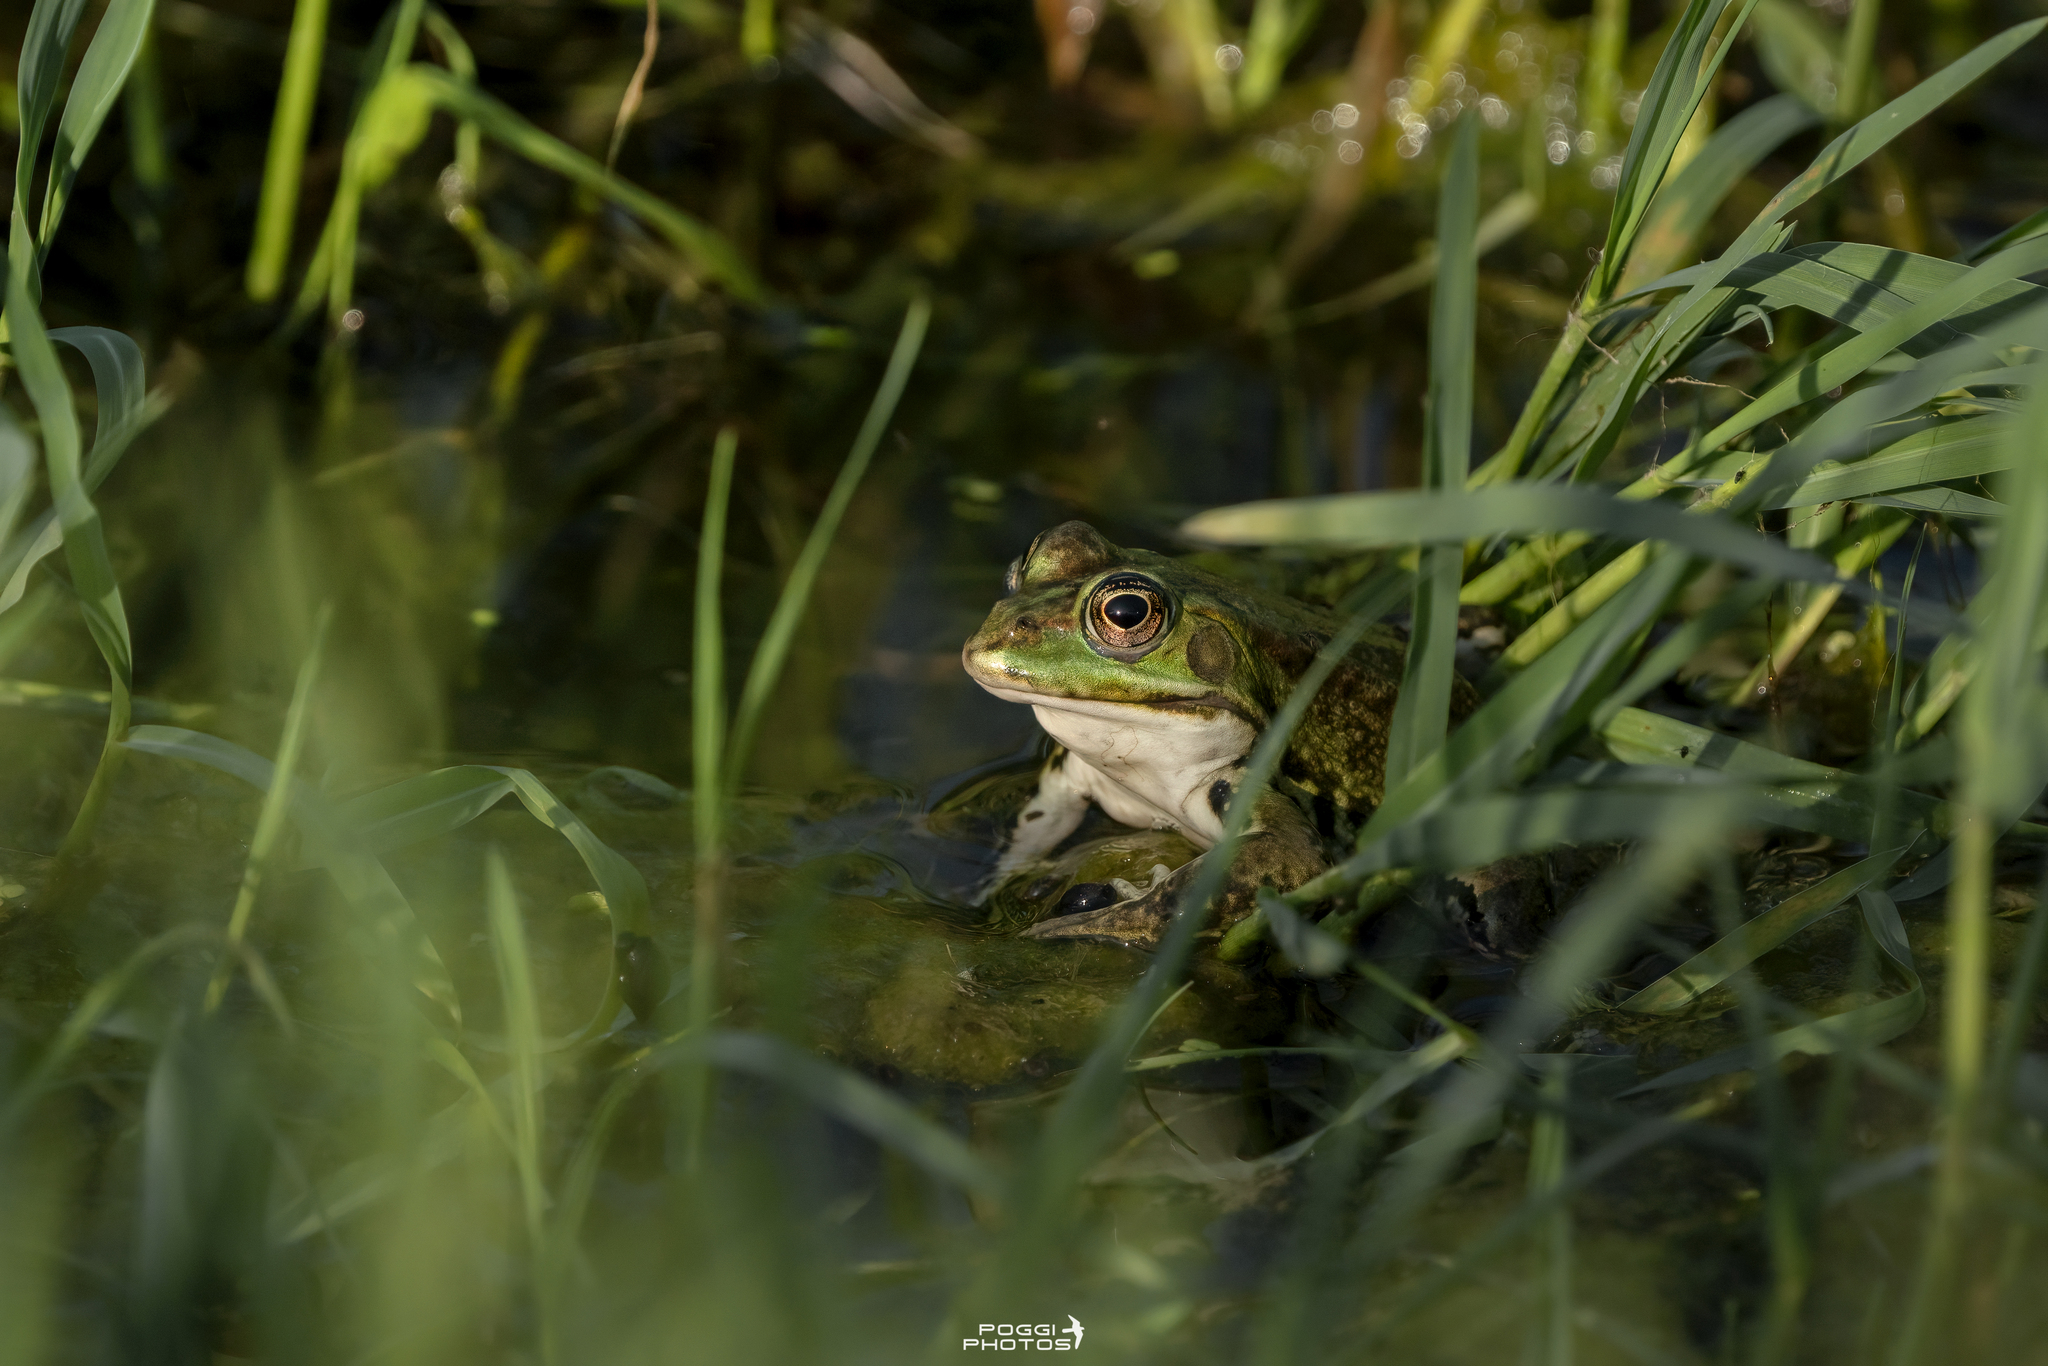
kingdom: Animalia
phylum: Chordata
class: Amphibia
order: Anura
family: Ranidae
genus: Pelophylax
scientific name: Pelophylax
